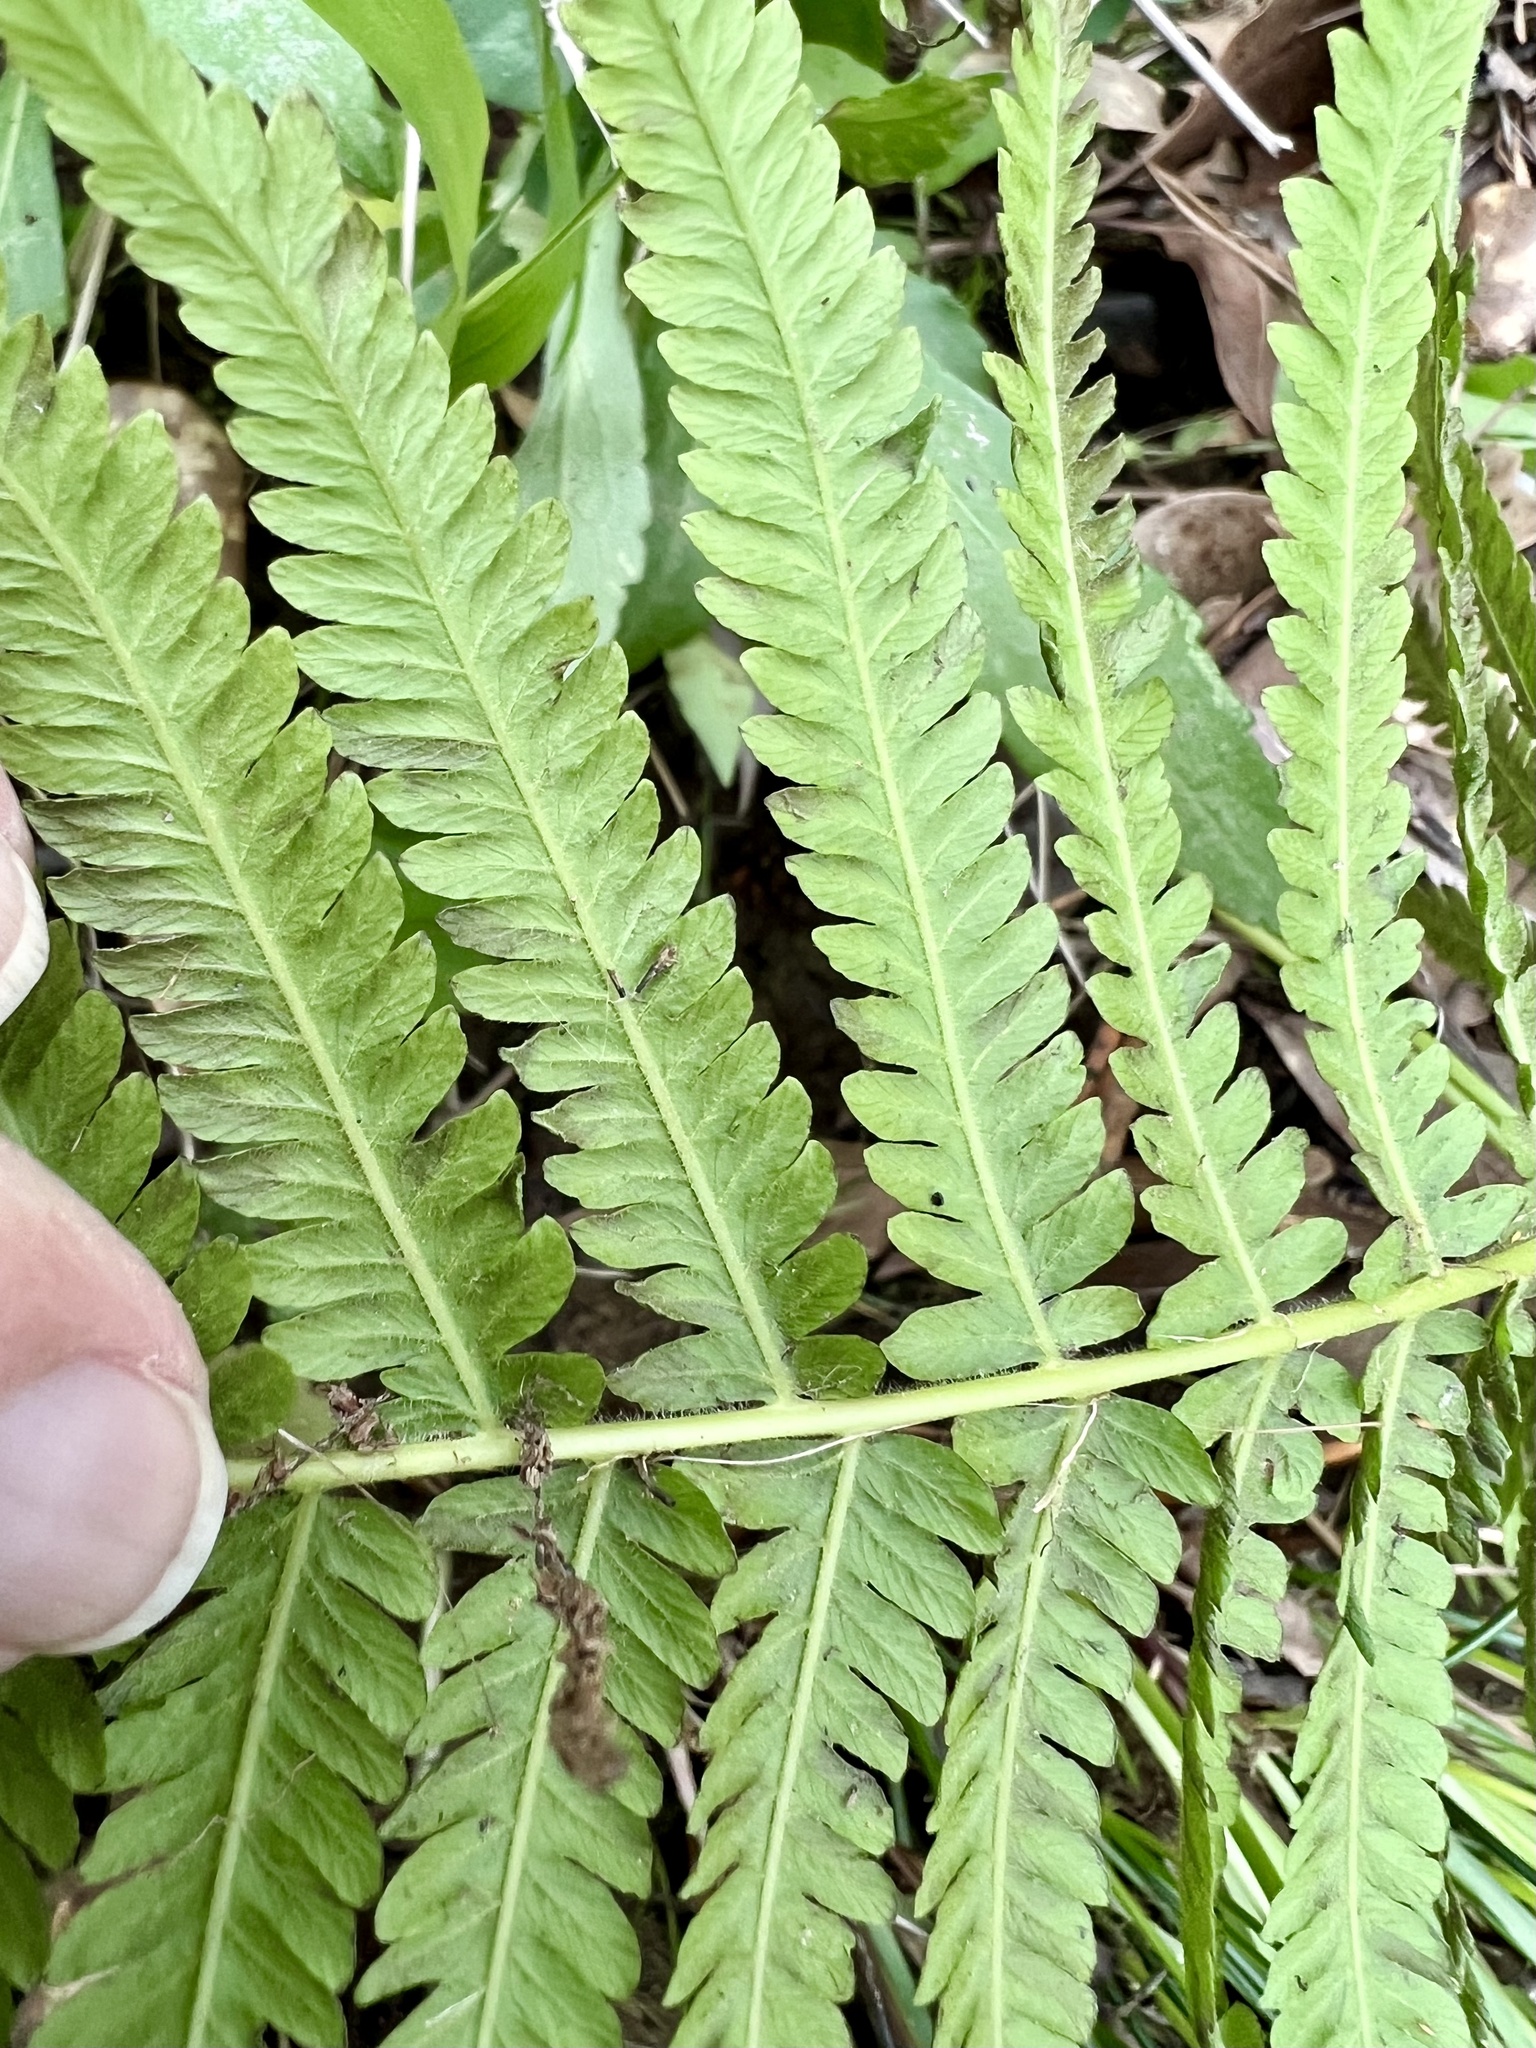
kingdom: Plantae
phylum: Tracheophyta
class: Polypodiopsida
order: Polypodiales
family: Thelypteridaceae
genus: Pelazoneuron
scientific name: Pelazoneuron kunthii
